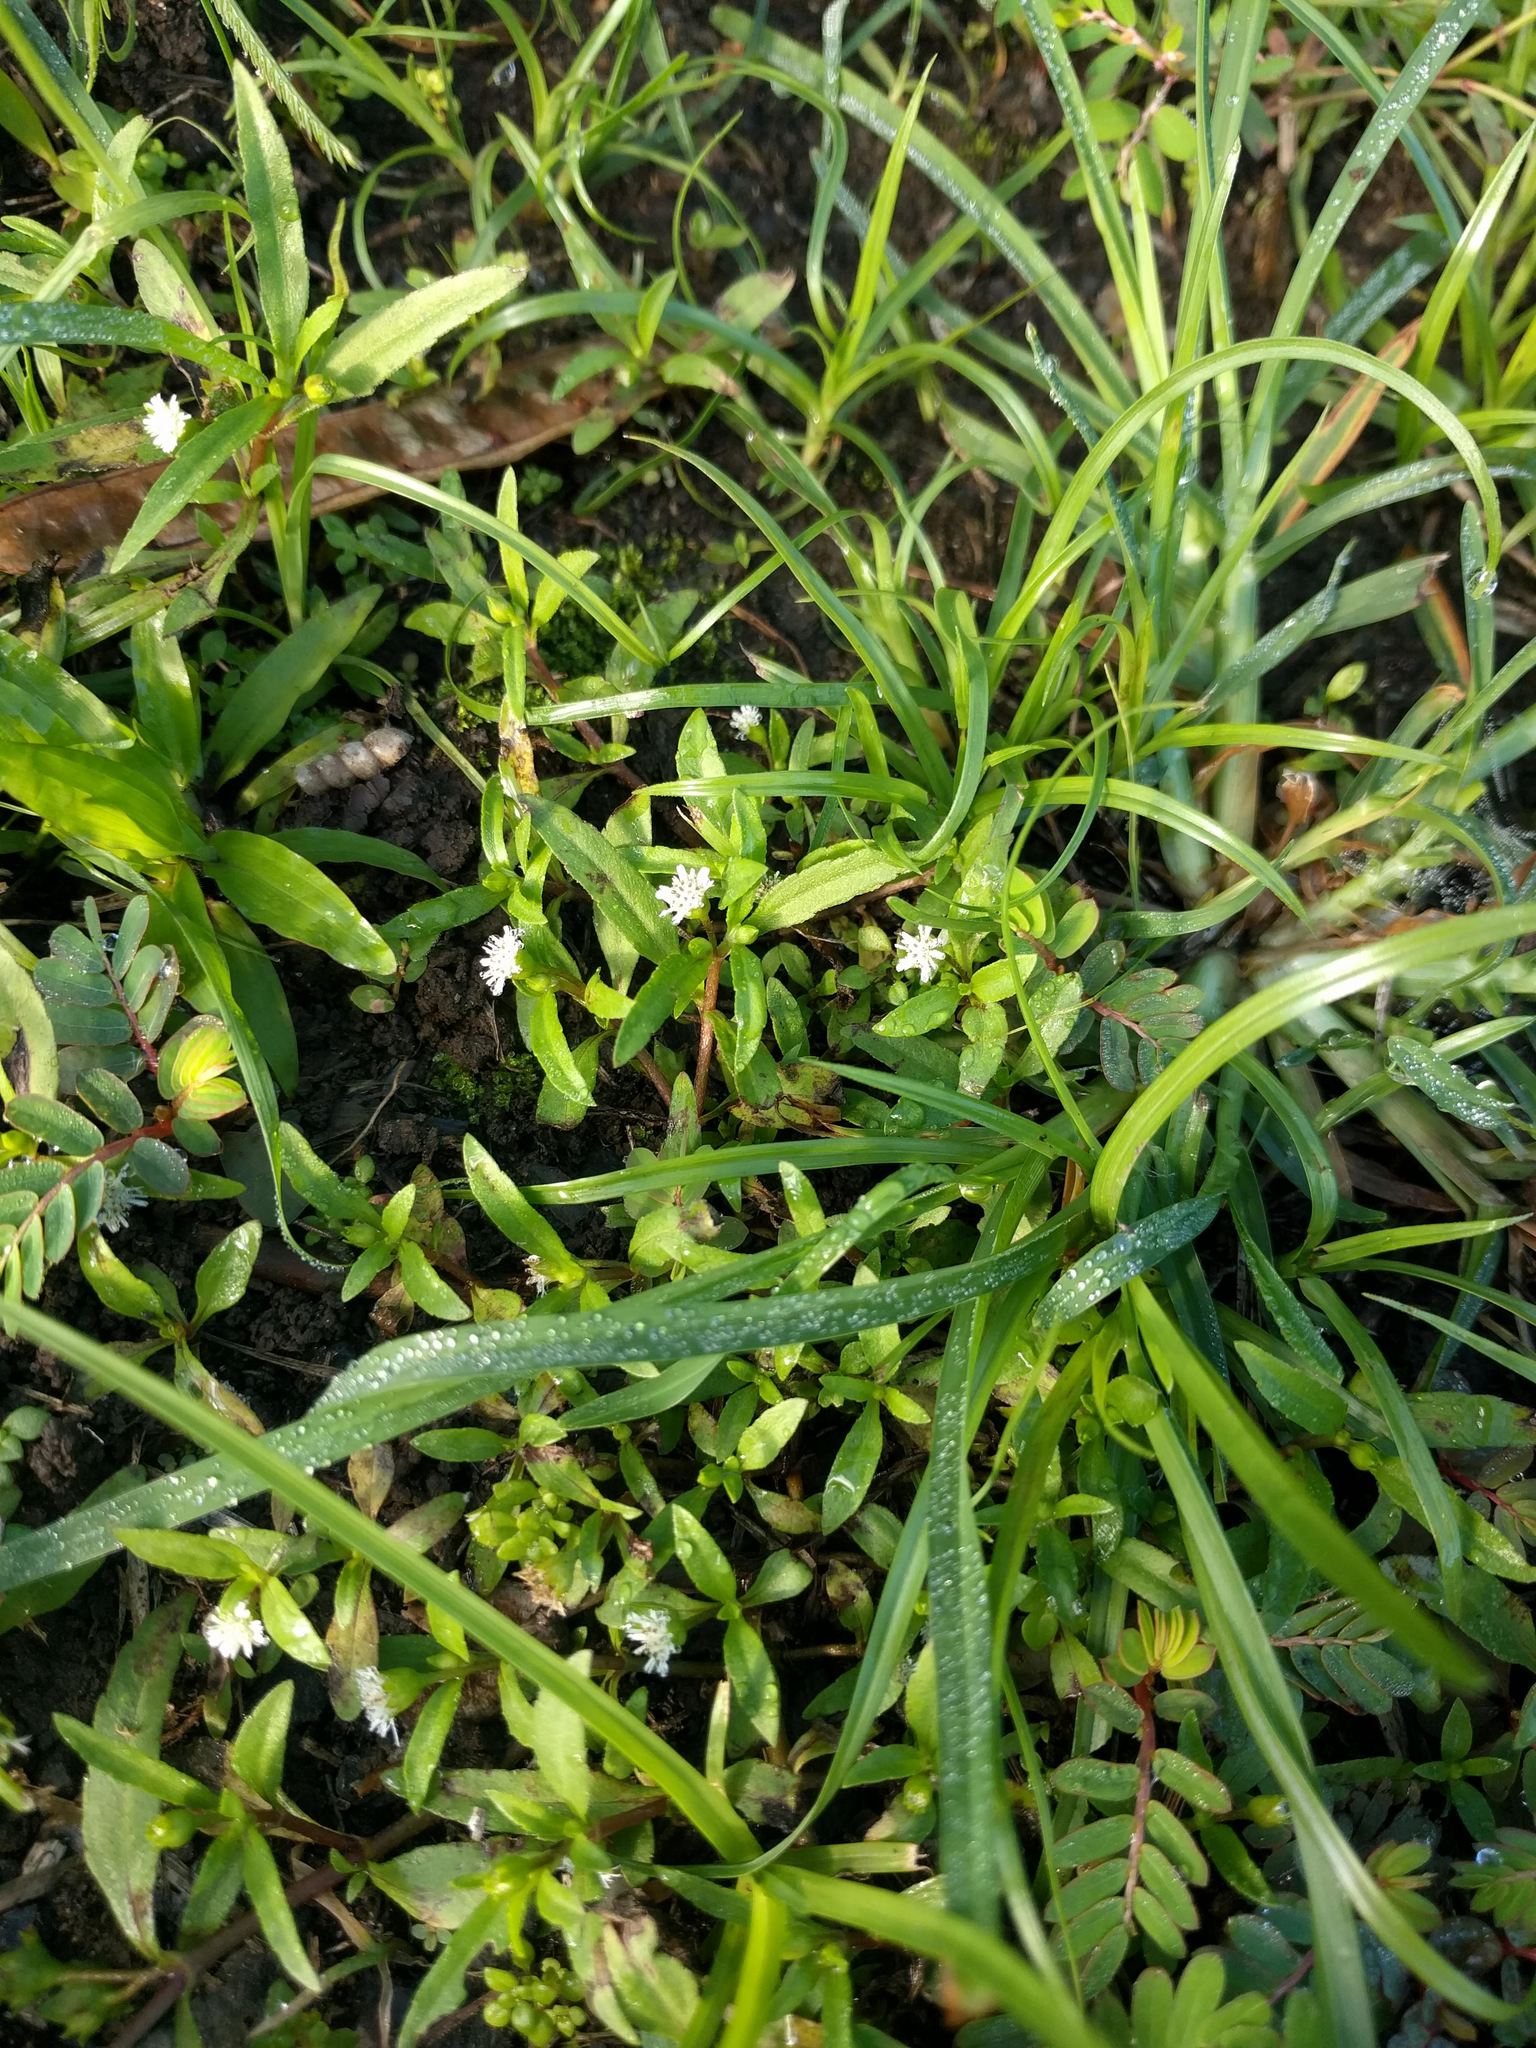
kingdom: Plantae
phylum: Tracheophyta
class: Magnoliopsida
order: Asterales
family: Asteraceae
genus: Eclipta
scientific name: Eclipta prostrata
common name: False daisy
